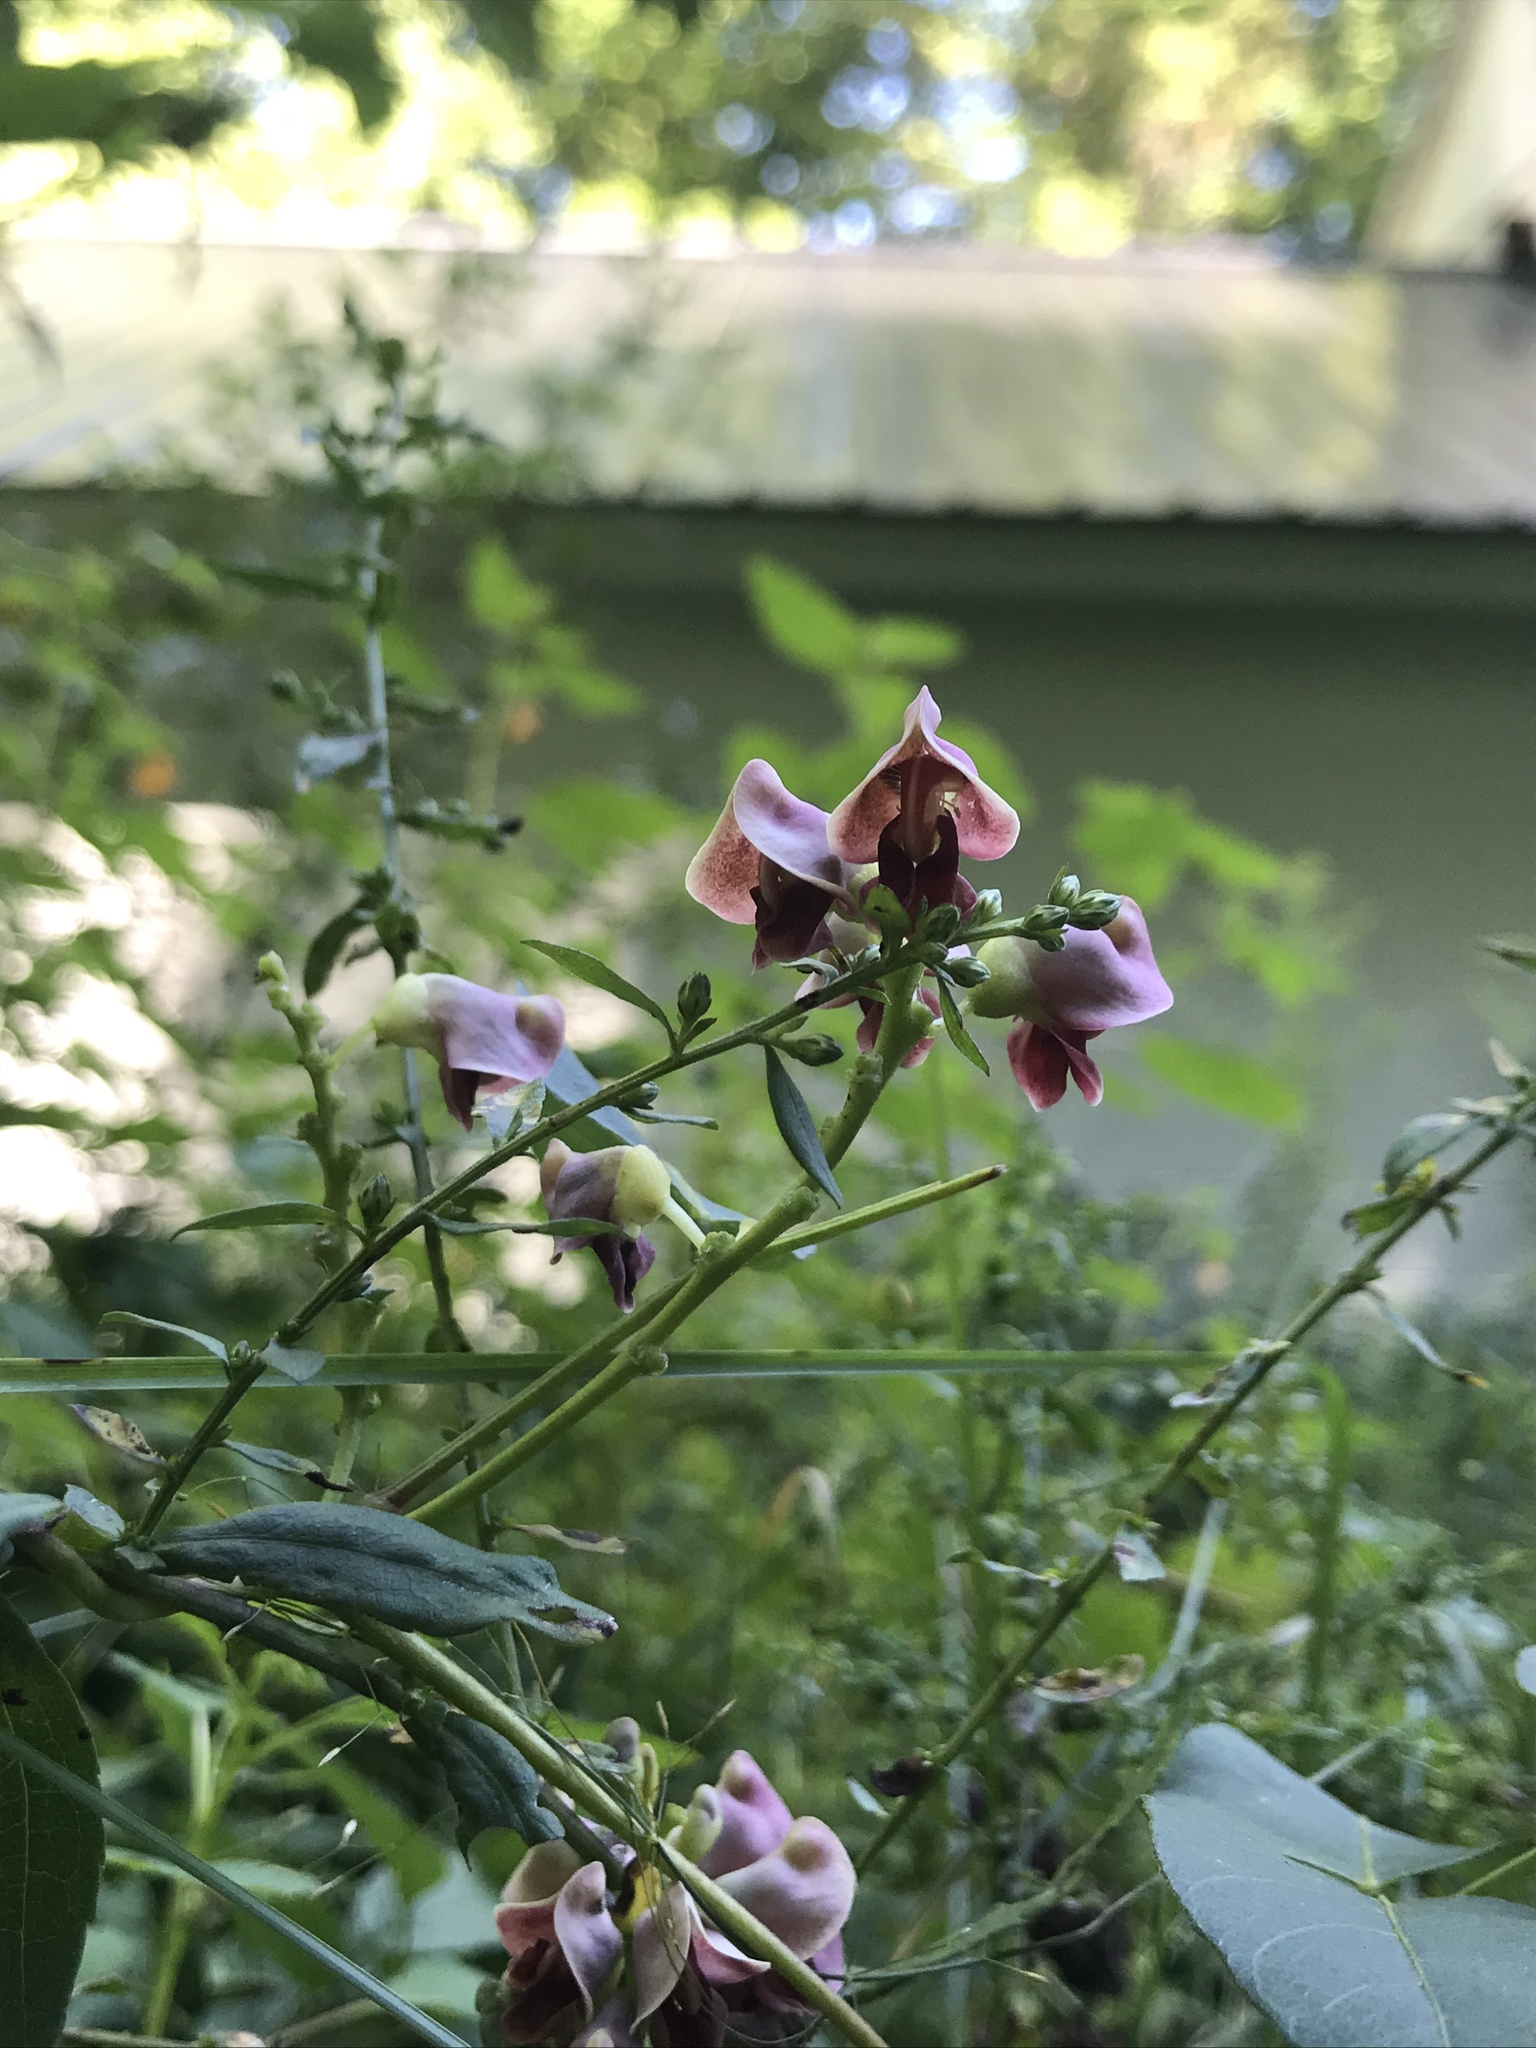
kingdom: Plantae
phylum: Tracheophyta
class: Magnoliopsida
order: Fabales
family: Fabaceae
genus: Apios
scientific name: Apios americana
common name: American potato-bean
